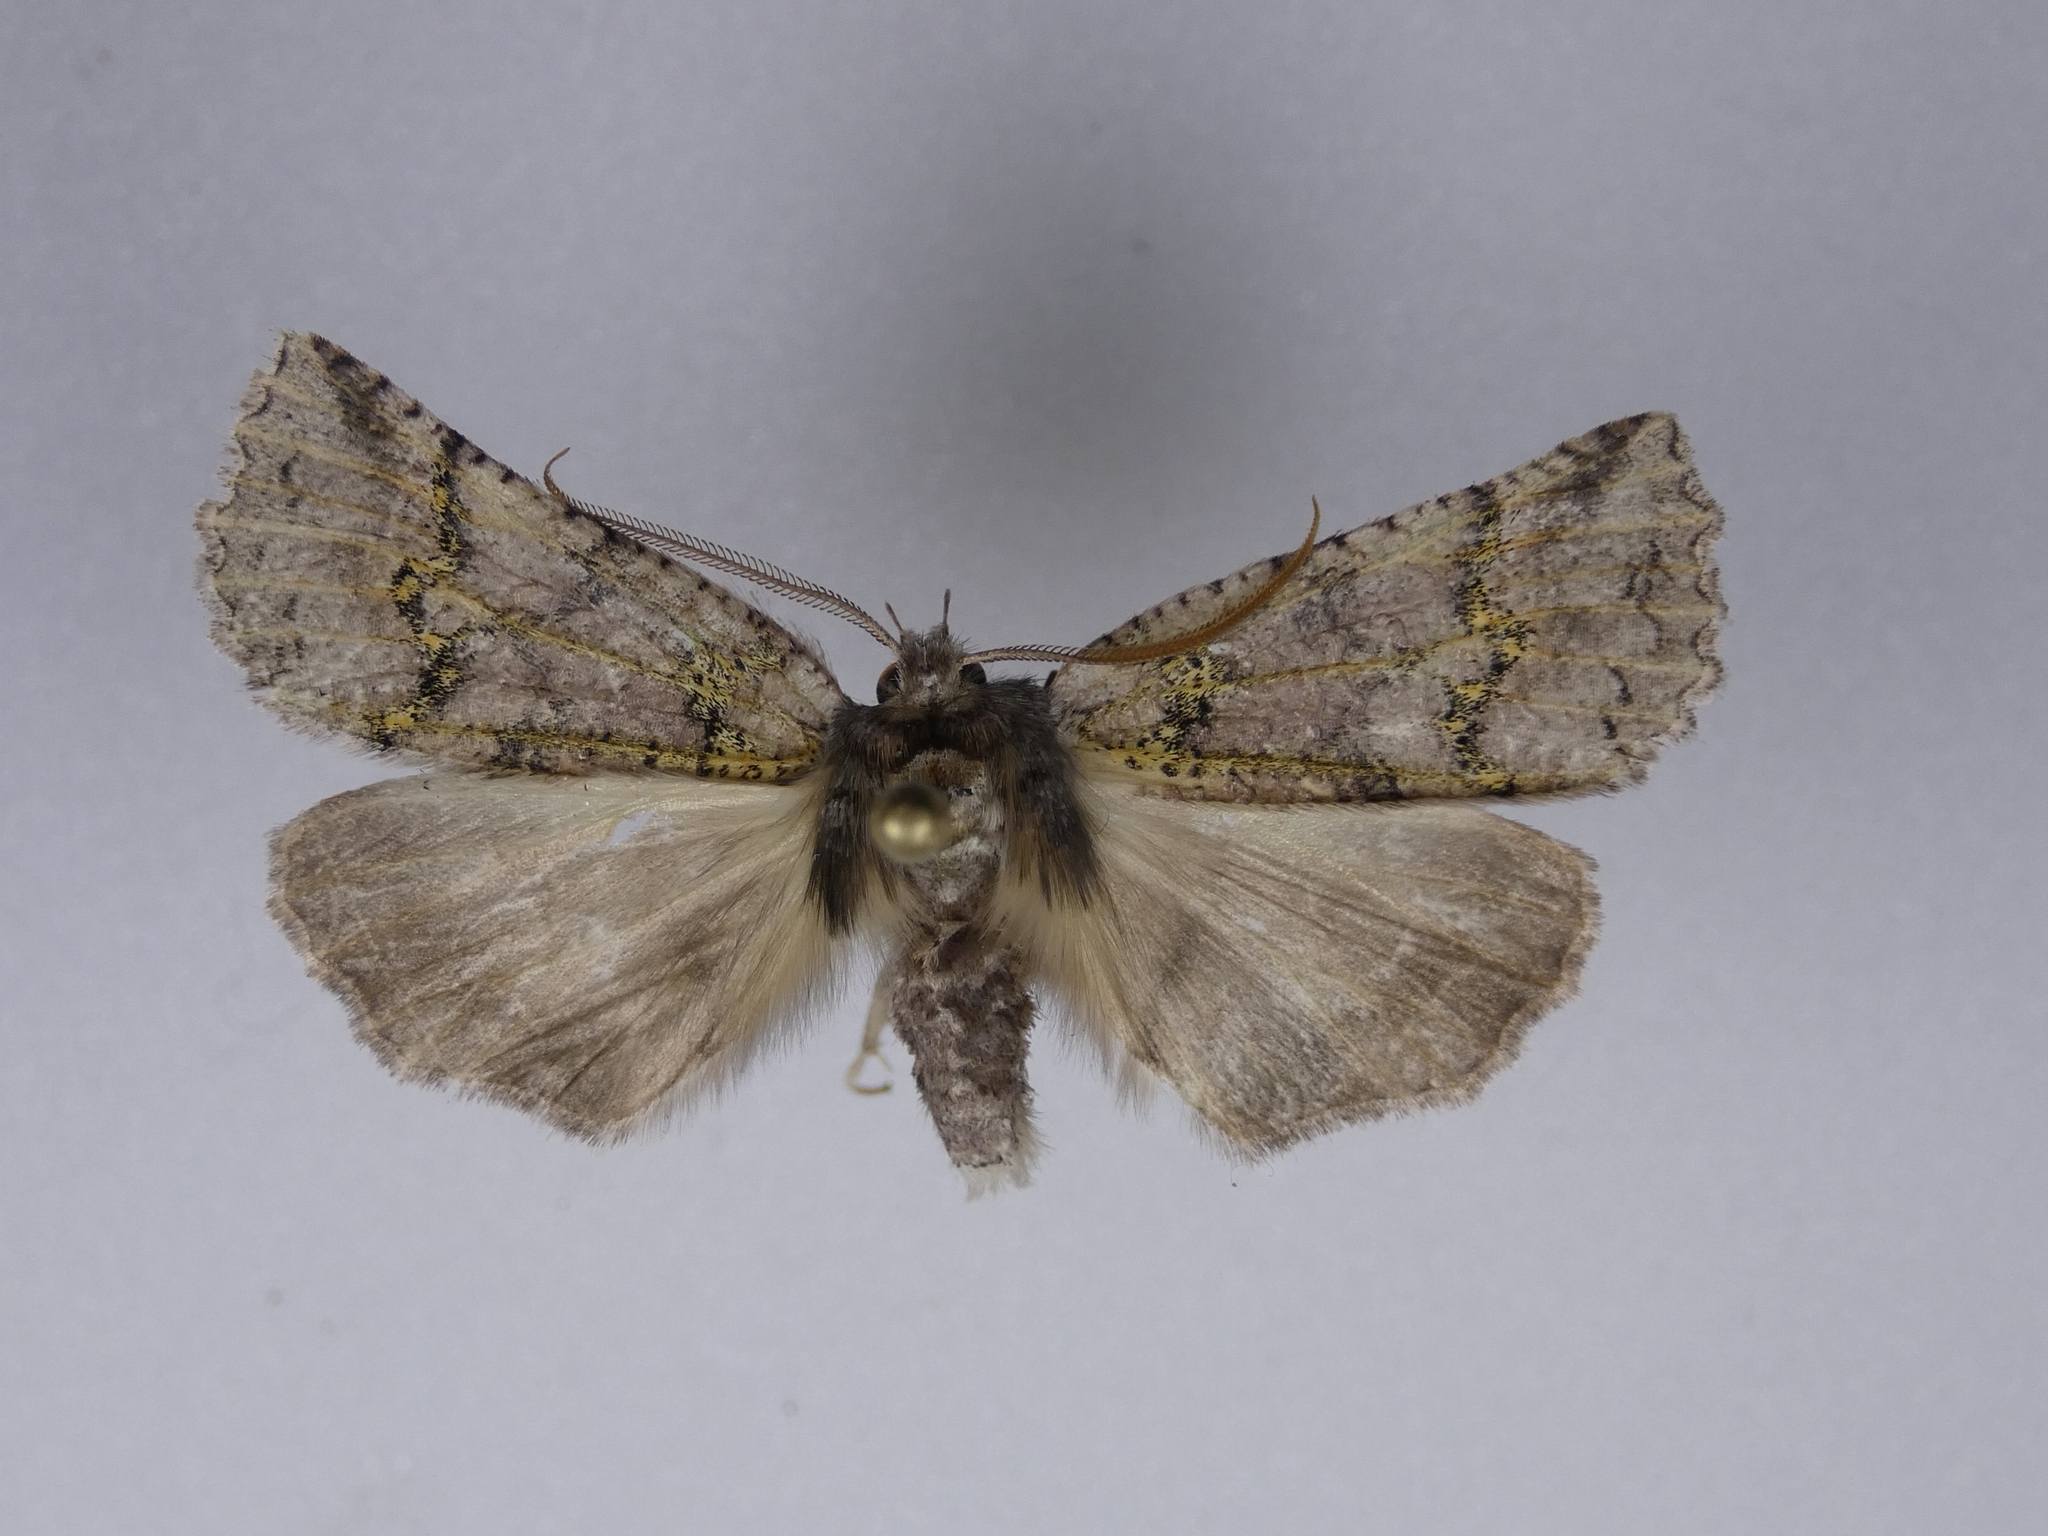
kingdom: Animalia
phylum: Arthropoda
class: Insecta
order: Lepidoptera
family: Geometridae
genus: Declana
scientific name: Declana floccosa
